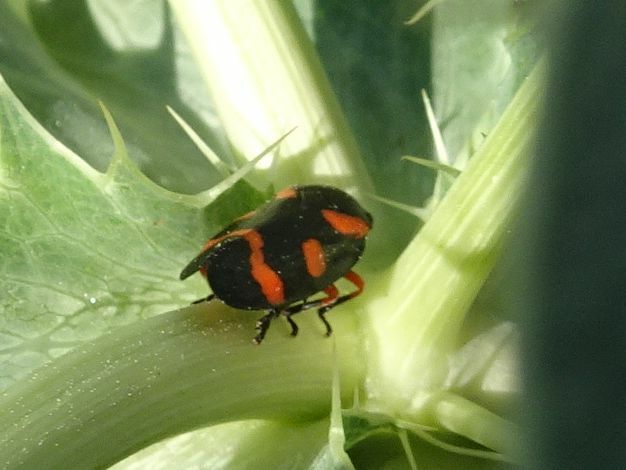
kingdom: Animalia
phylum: Arthropoda
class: Insecta
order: Hemiptera
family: Cercopidae
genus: Cercopis
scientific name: Cercopis intermedia
